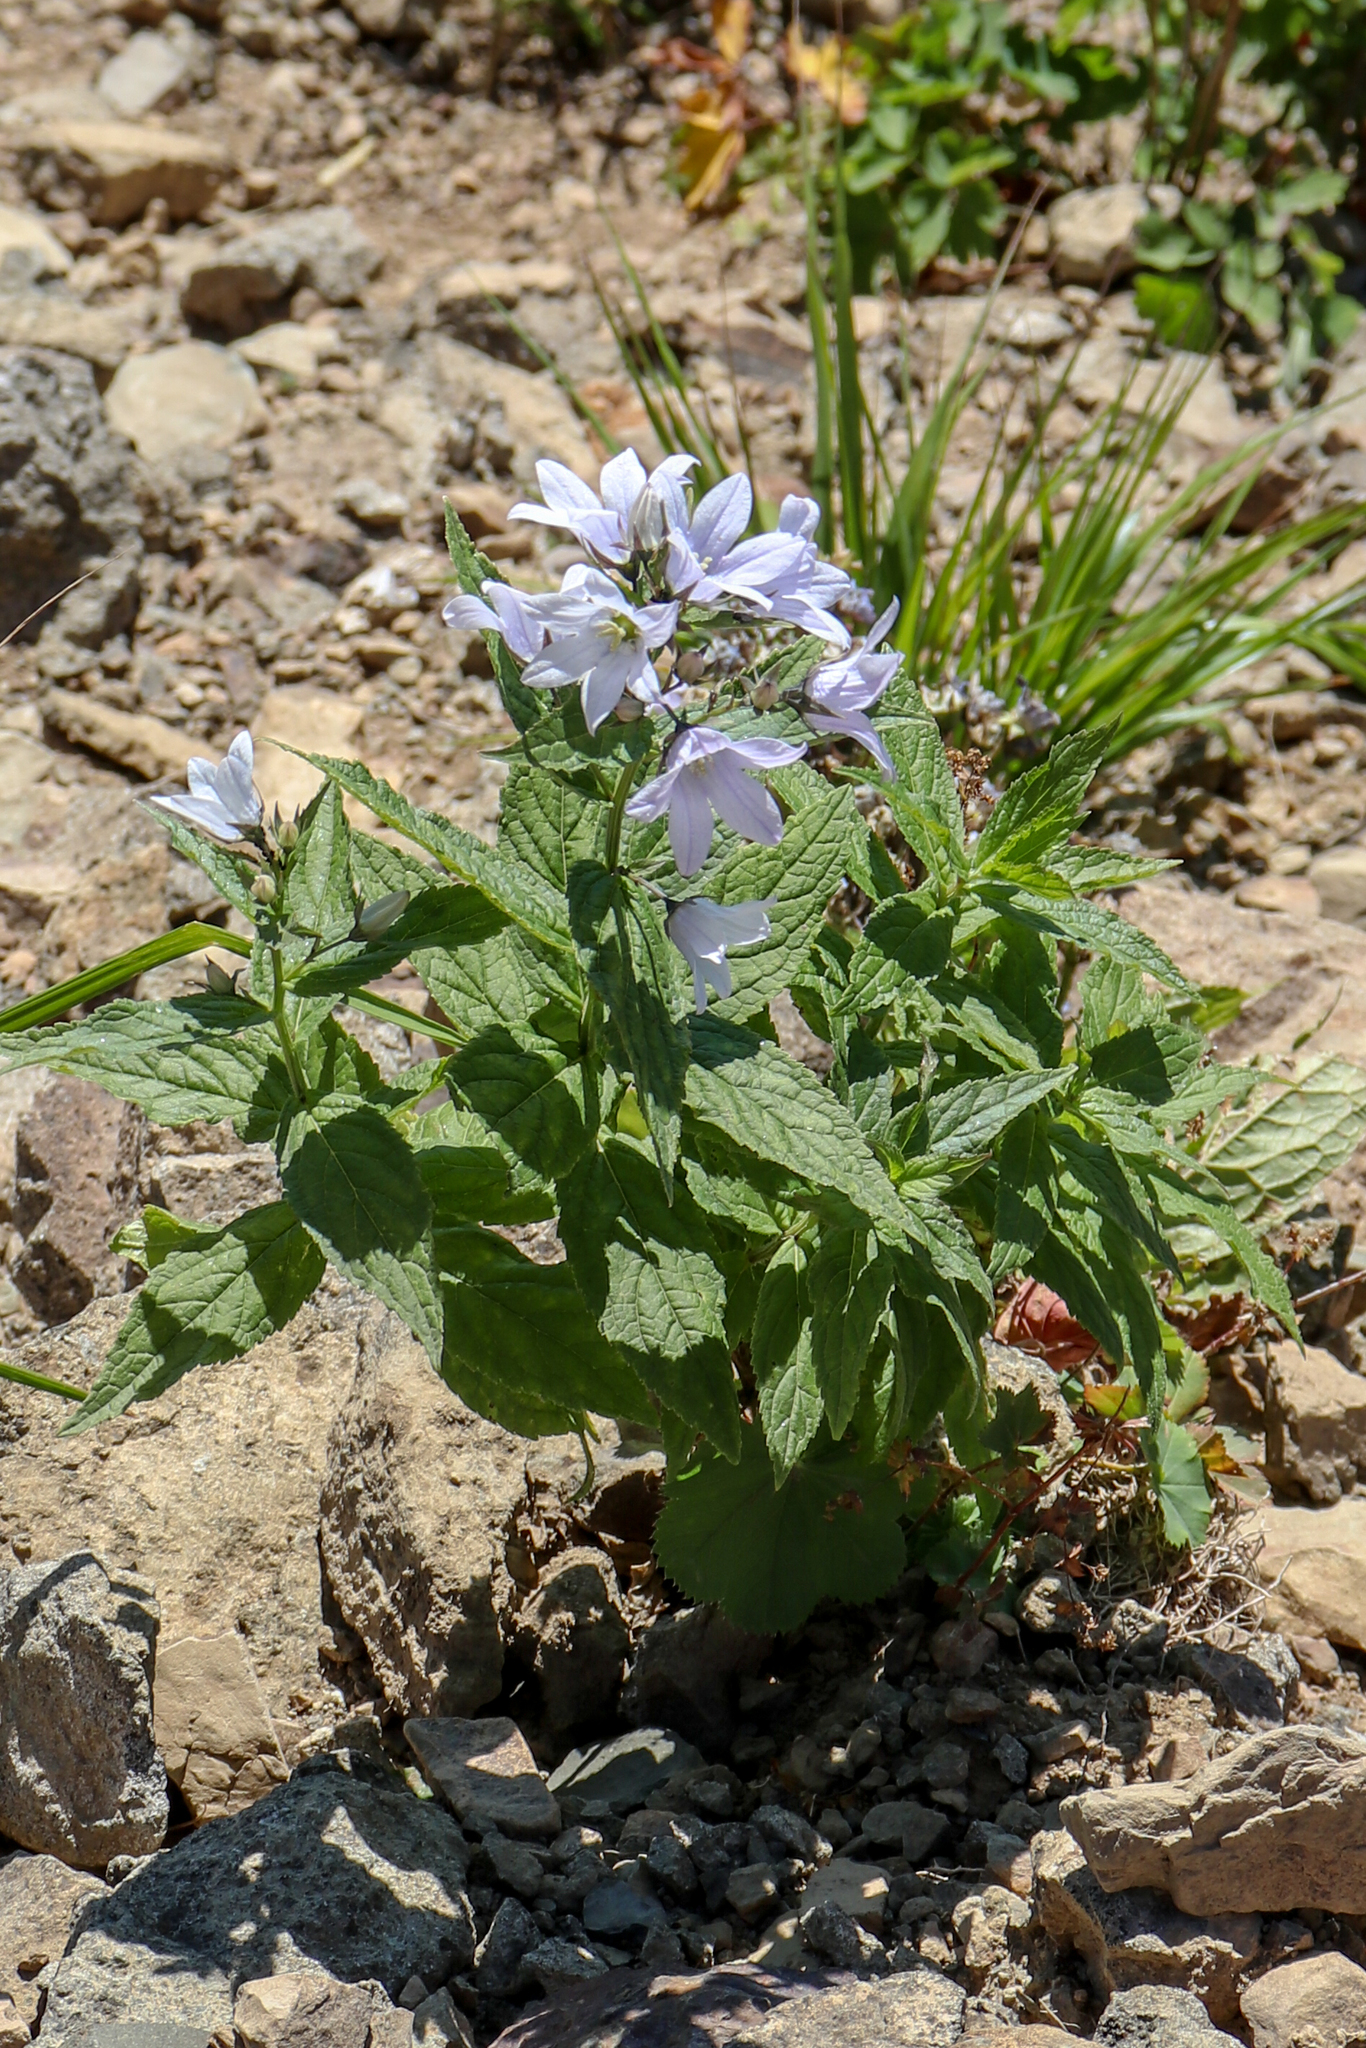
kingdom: Plantae
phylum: Tracheophyta
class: Magnoliopsida
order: Asterales
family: Campanulaceae
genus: Campanula
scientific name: Campanula lactiflora
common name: Milky bellflower
